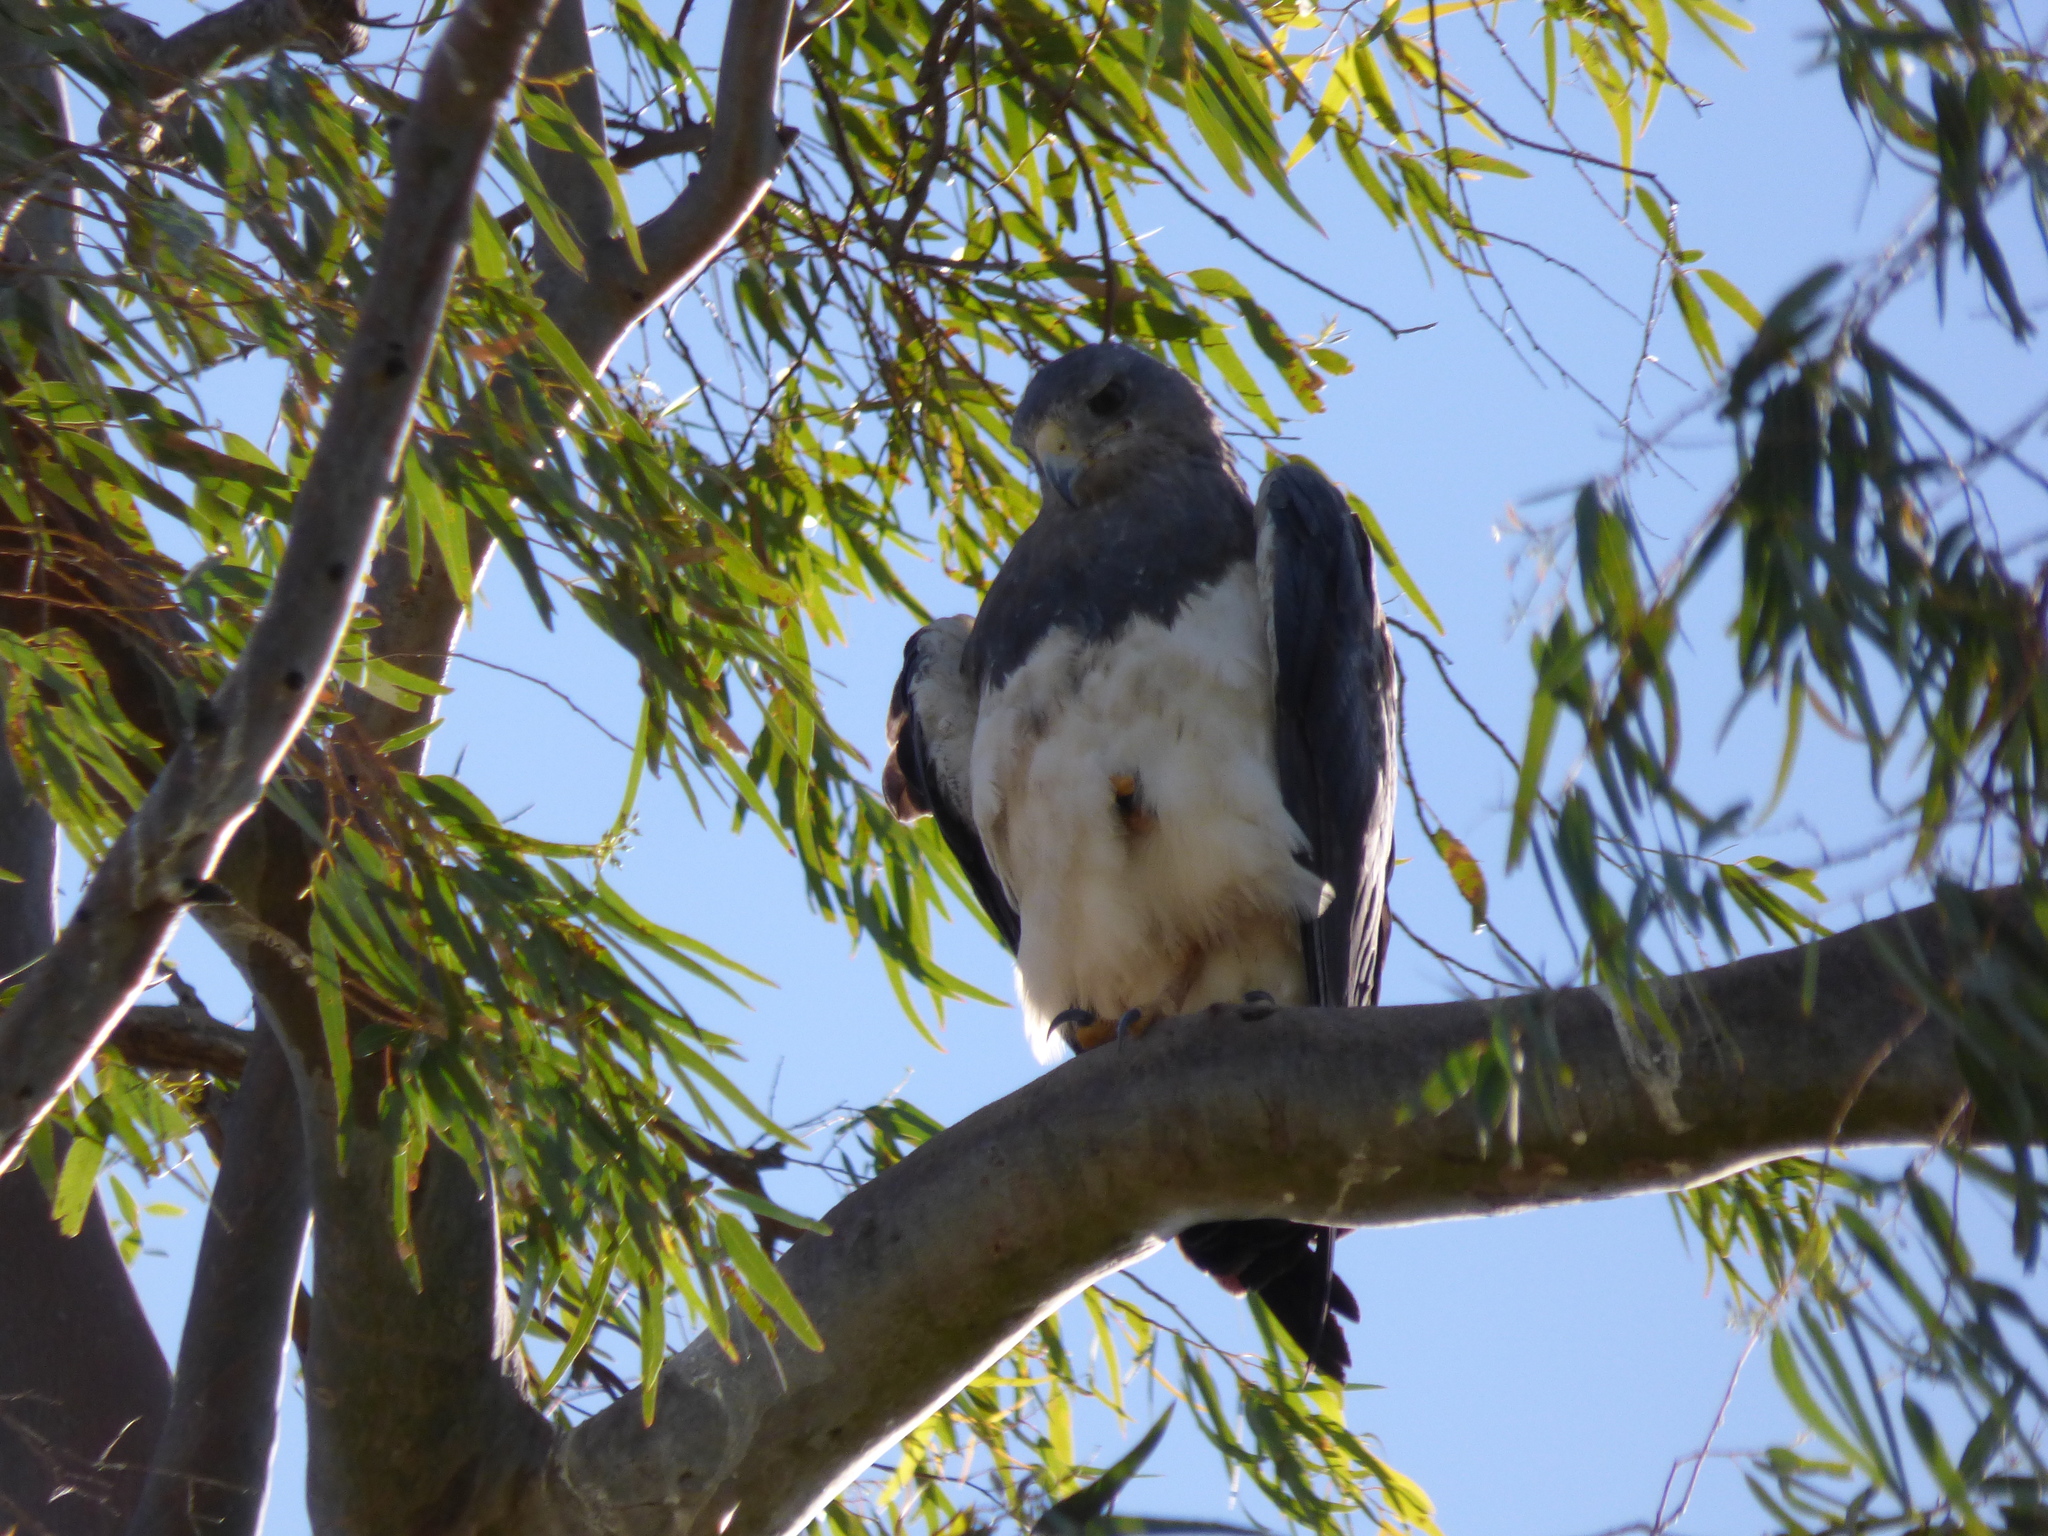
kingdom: Animalia
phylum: Chordata
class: Aves
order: Accipitriformes
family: Accipitridae
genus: Geranoaetus
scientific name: Geranoaetus melanoleucus
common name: Black-chested buzzard-eagle
